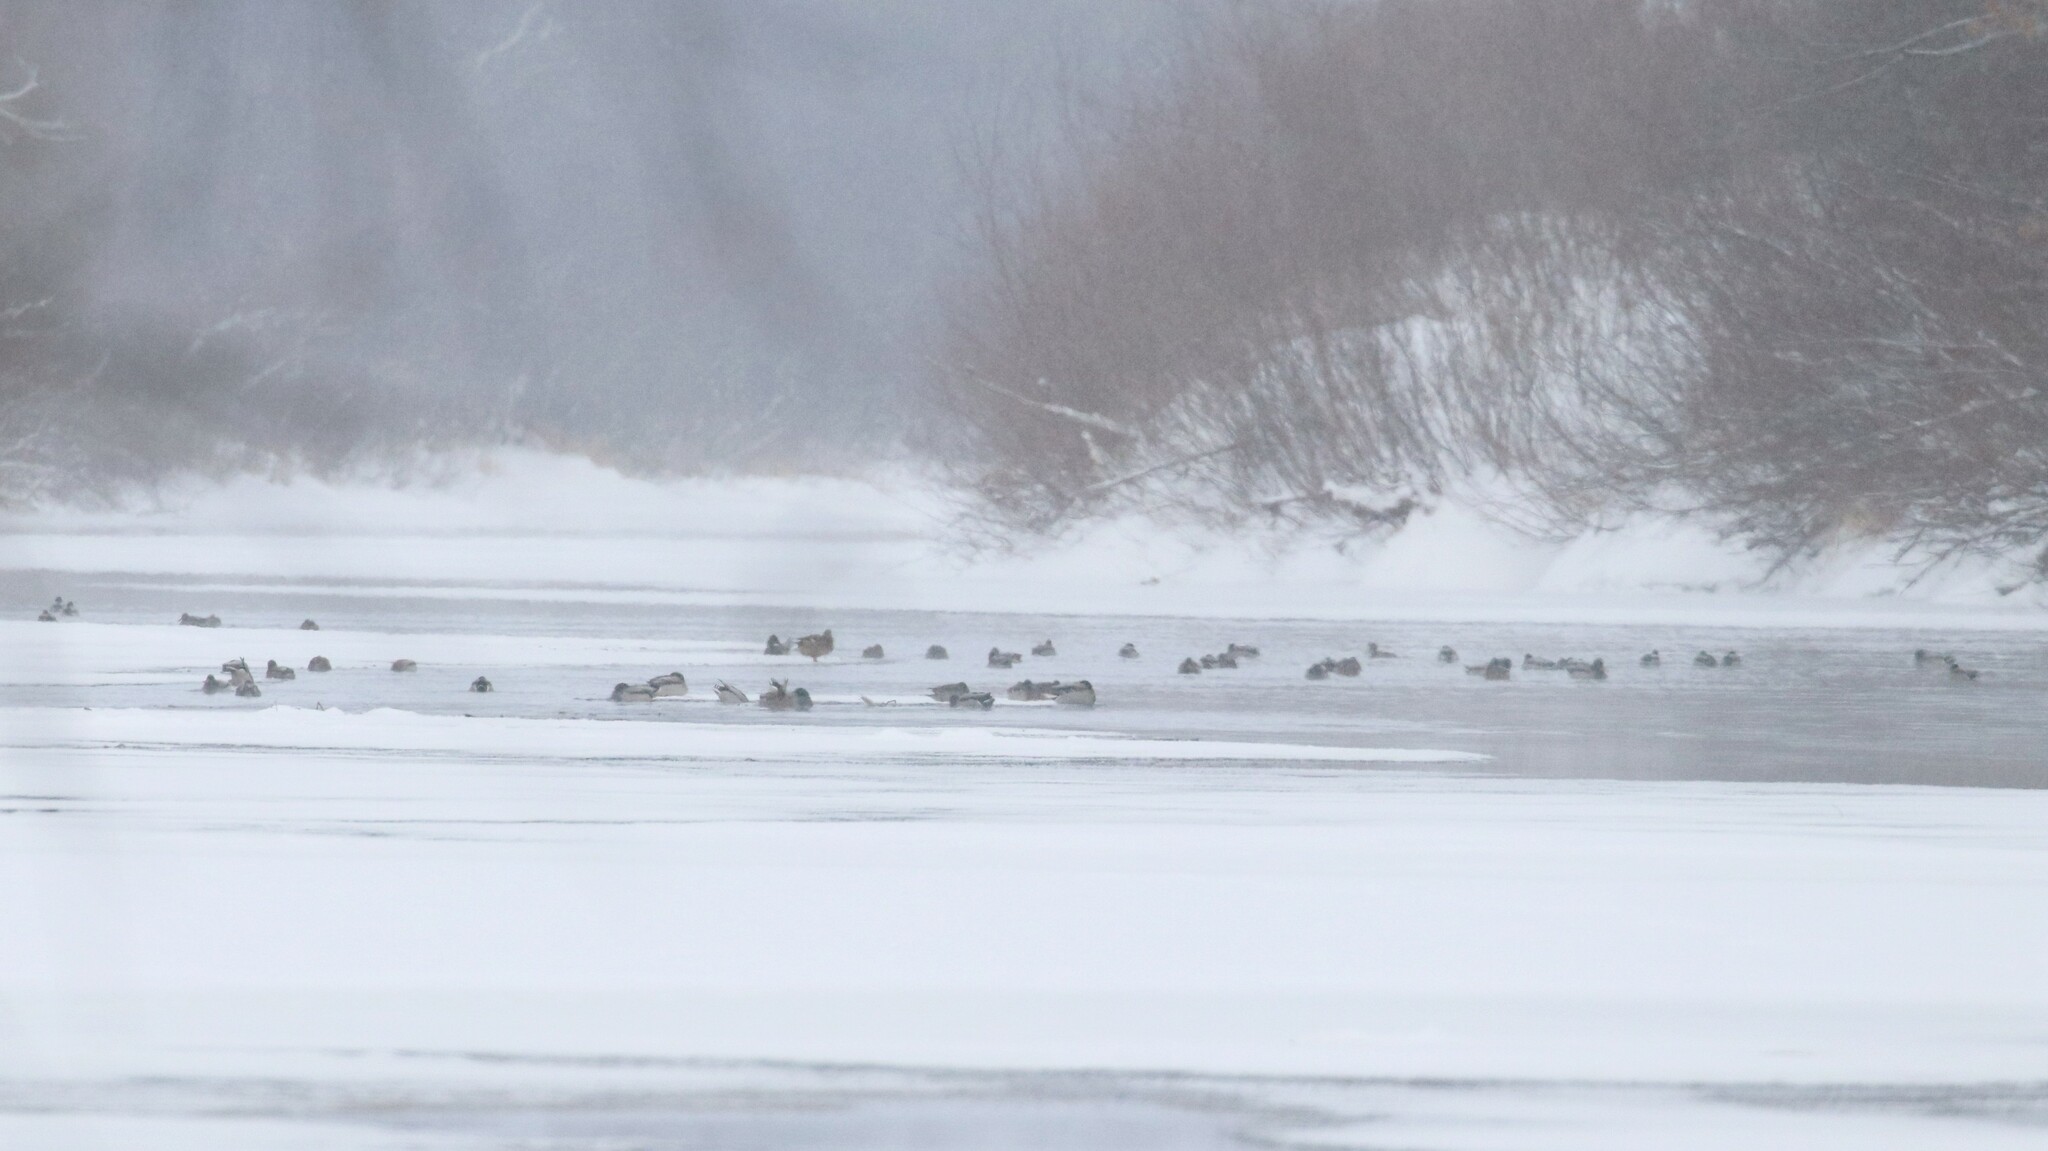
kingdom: Animalia
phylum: Chordata
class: Aves
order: Anseriformes
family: Anatidae
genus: Anas
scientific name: Anas platyrhynchos
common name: Mallard
